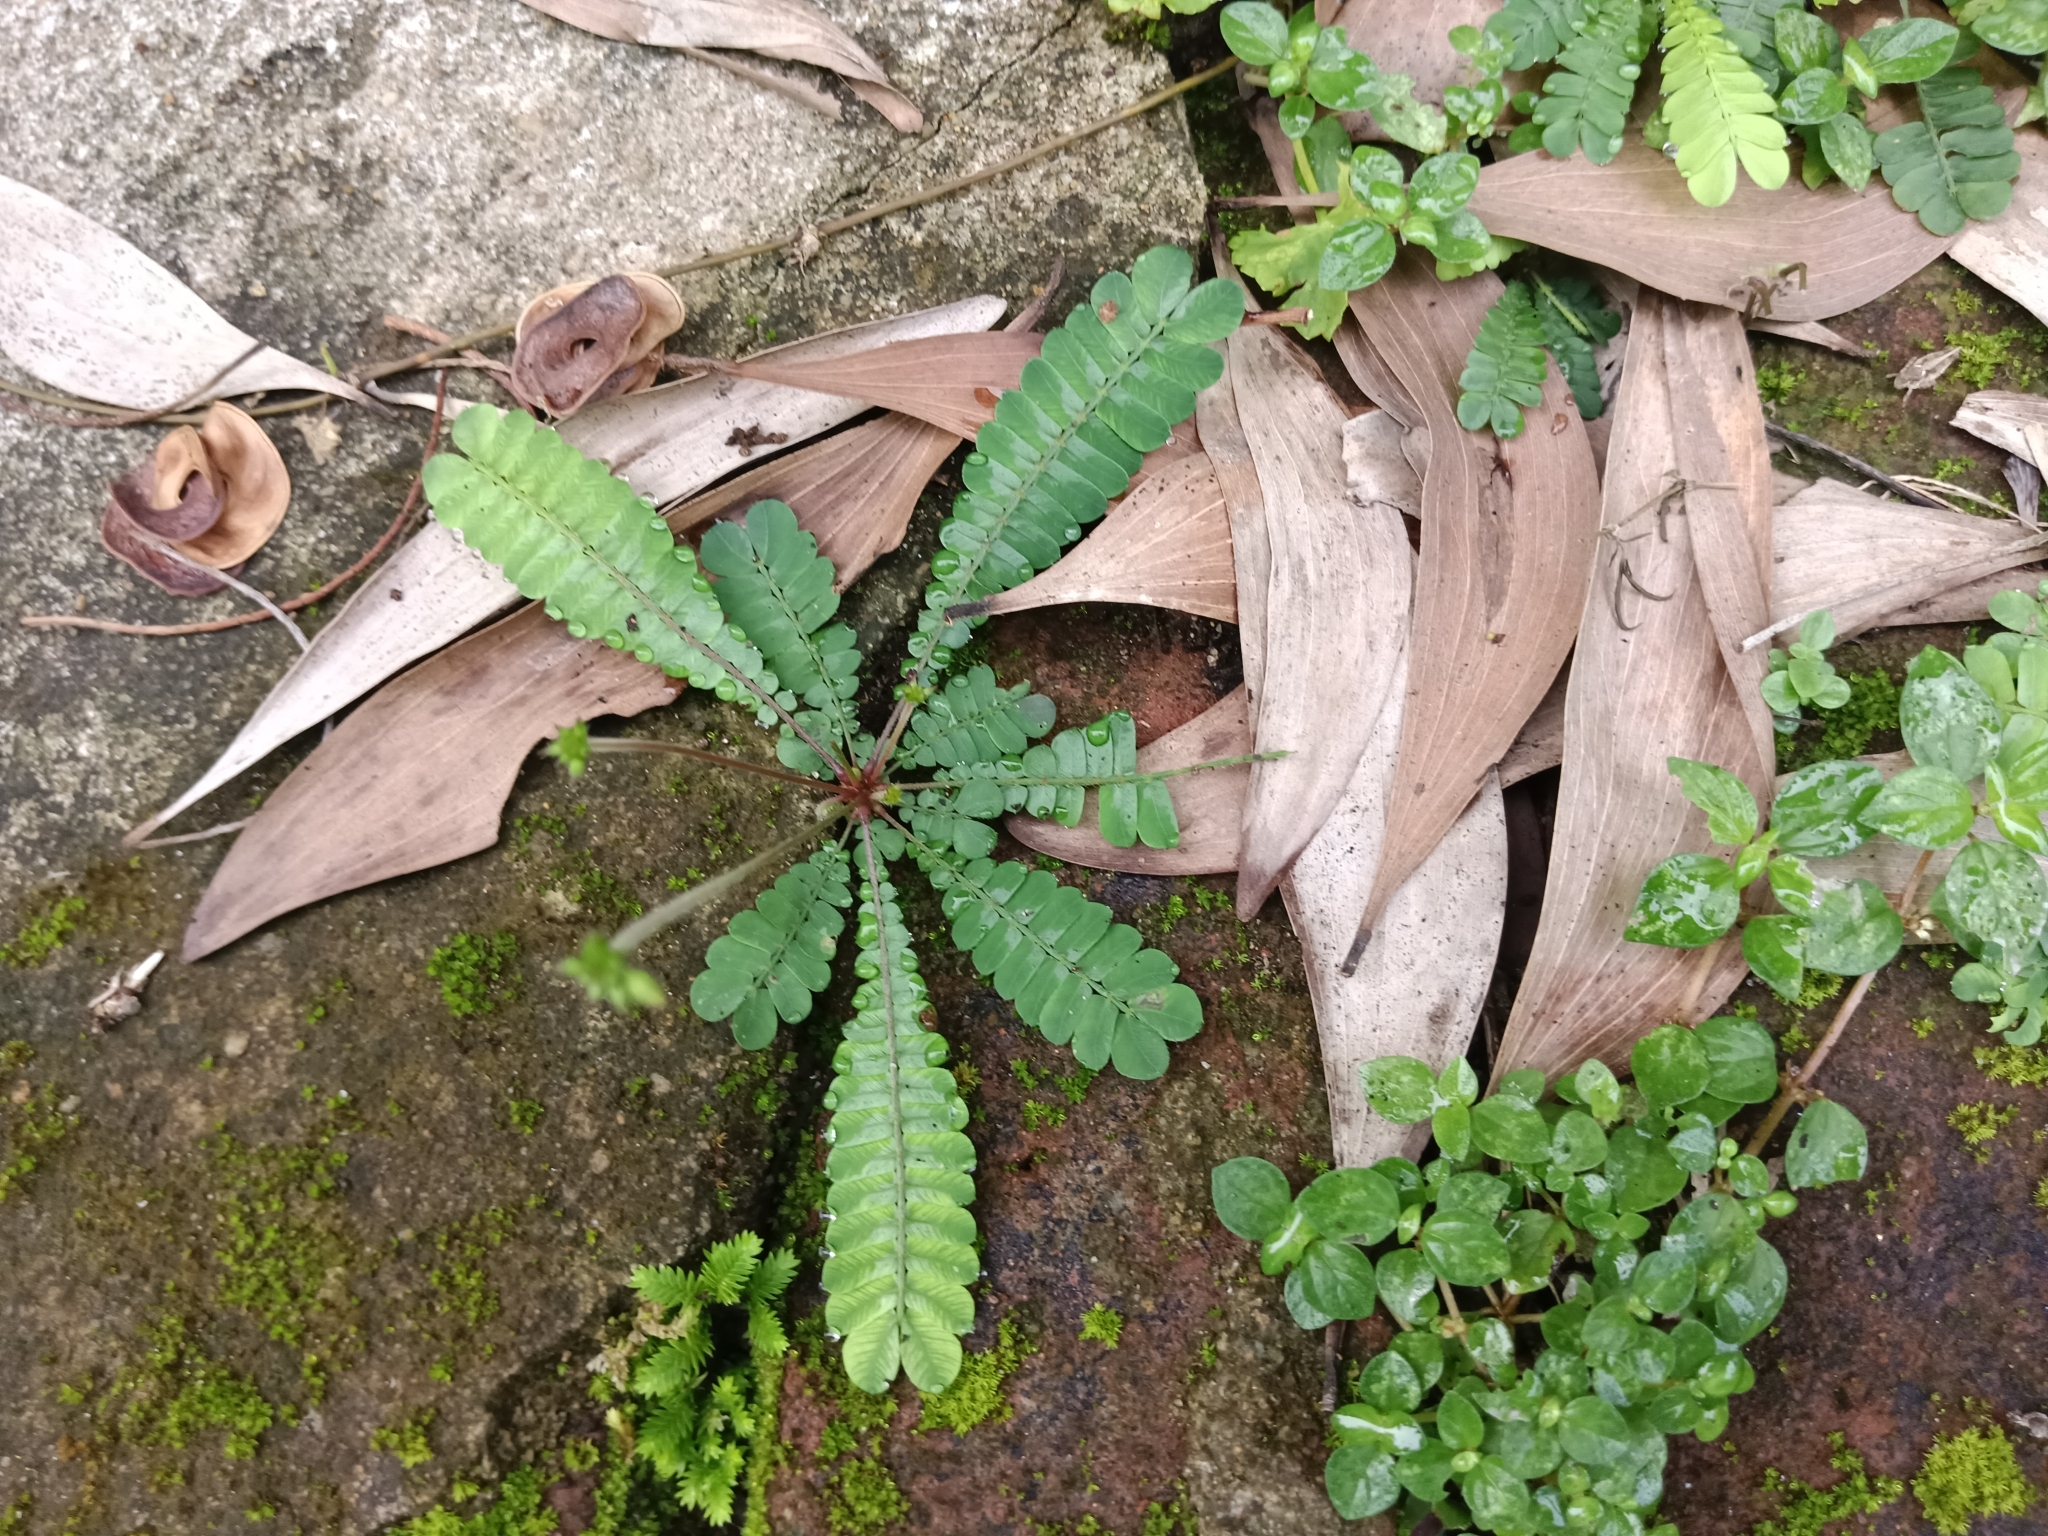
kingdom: Plantae
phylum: Tracheophyta
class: Magnoliopsida
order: Oxalidales
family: Oxalidaceae
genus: Biophytum
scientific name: Biophytum sensitivum
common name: Lifeplant
